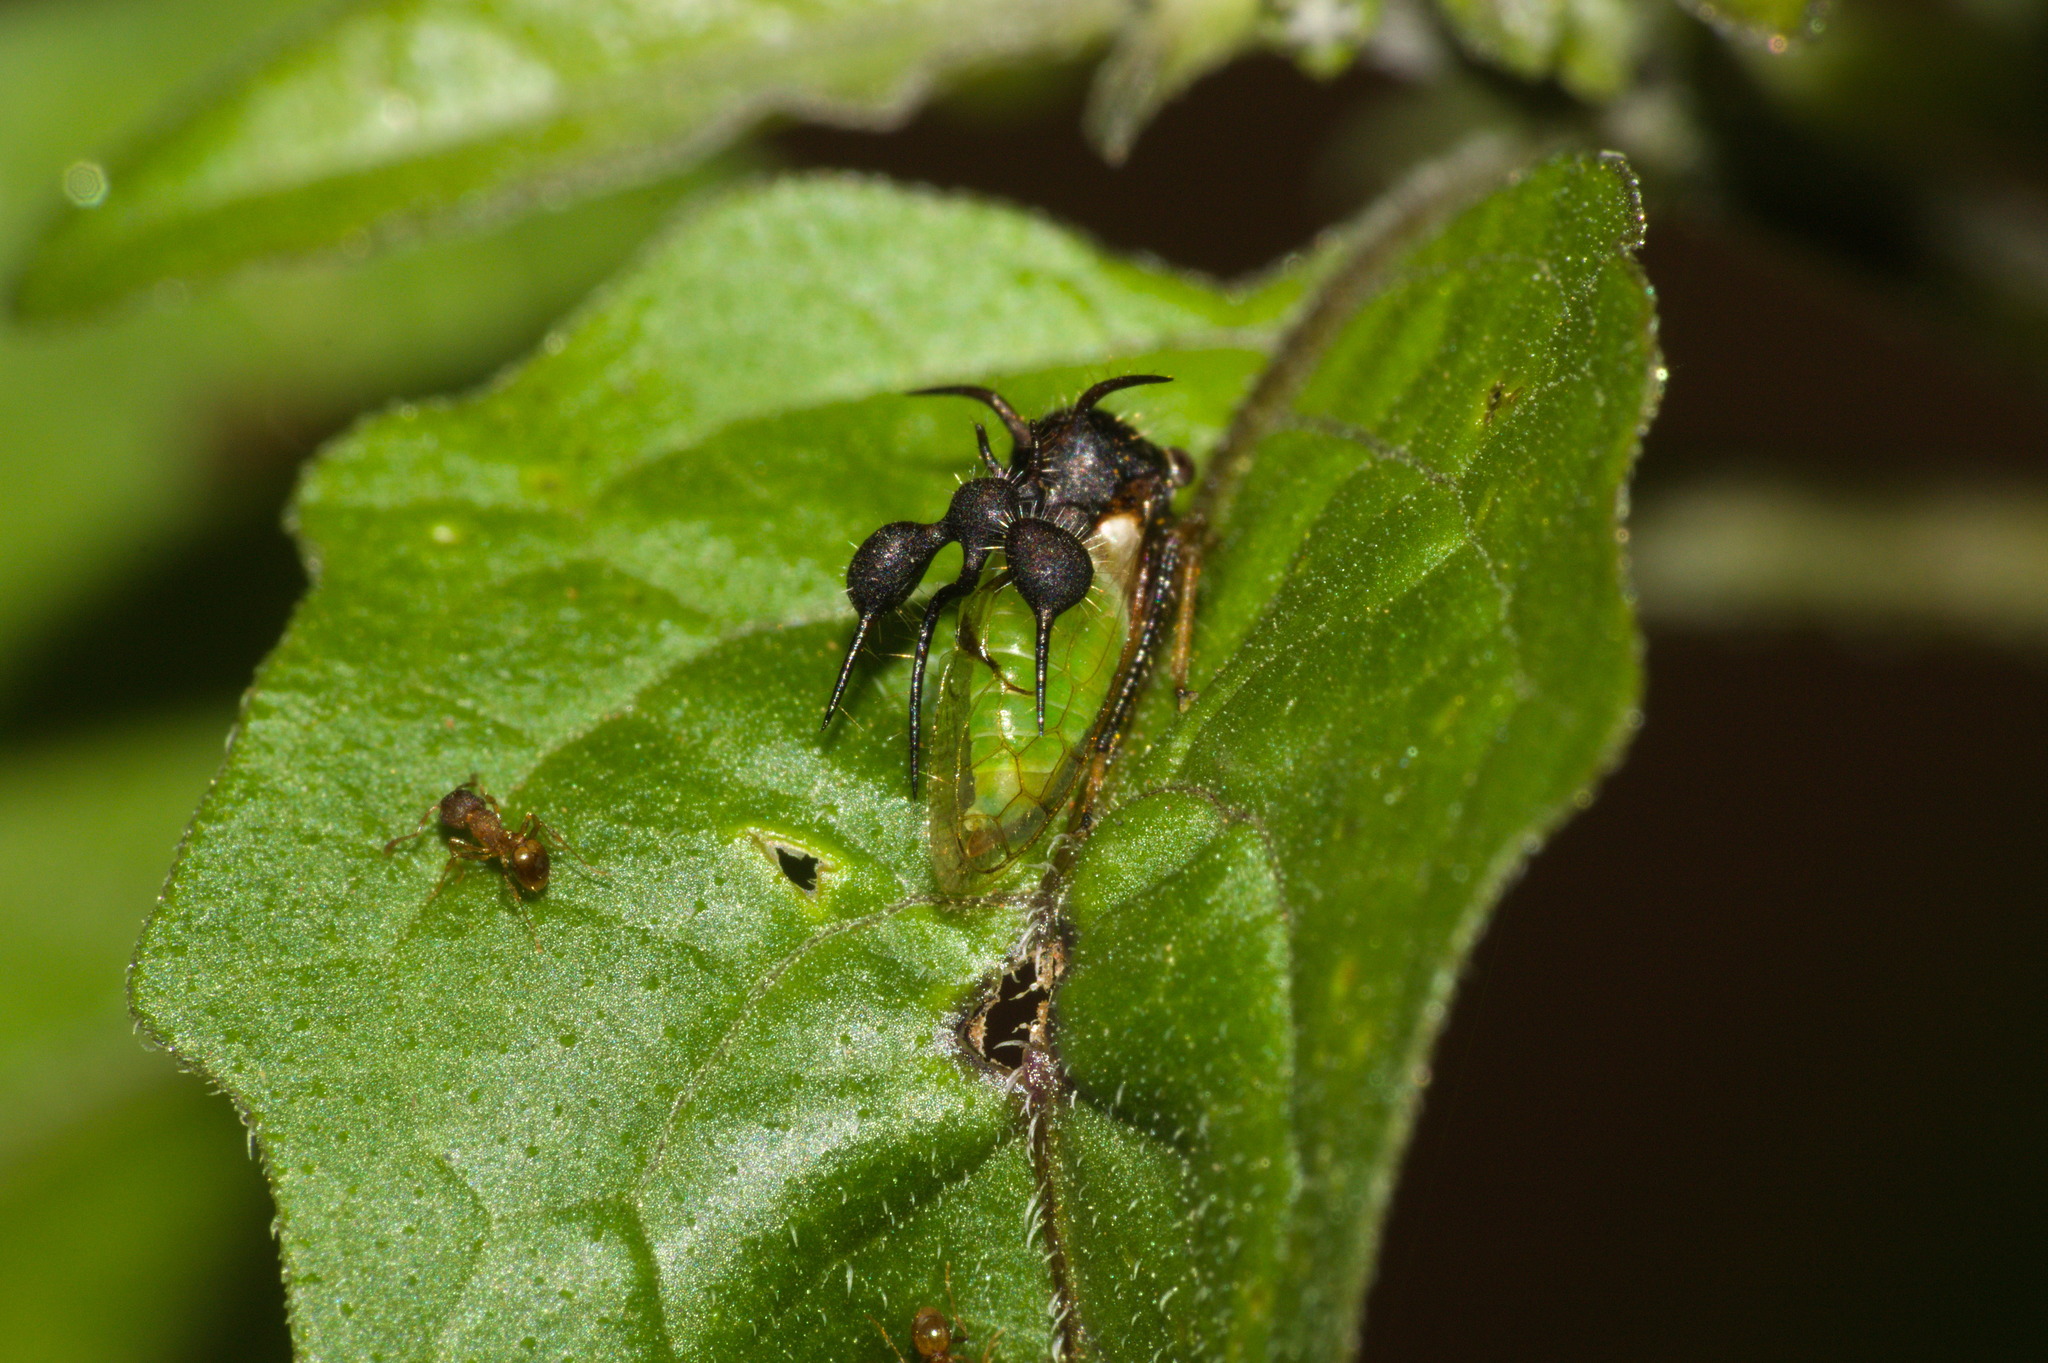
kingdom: Animalia
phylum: Arthropoda
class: Insecta
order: Hemiptera
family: Membracidae
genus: Cyphonia
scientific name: Cyphonia clavata
